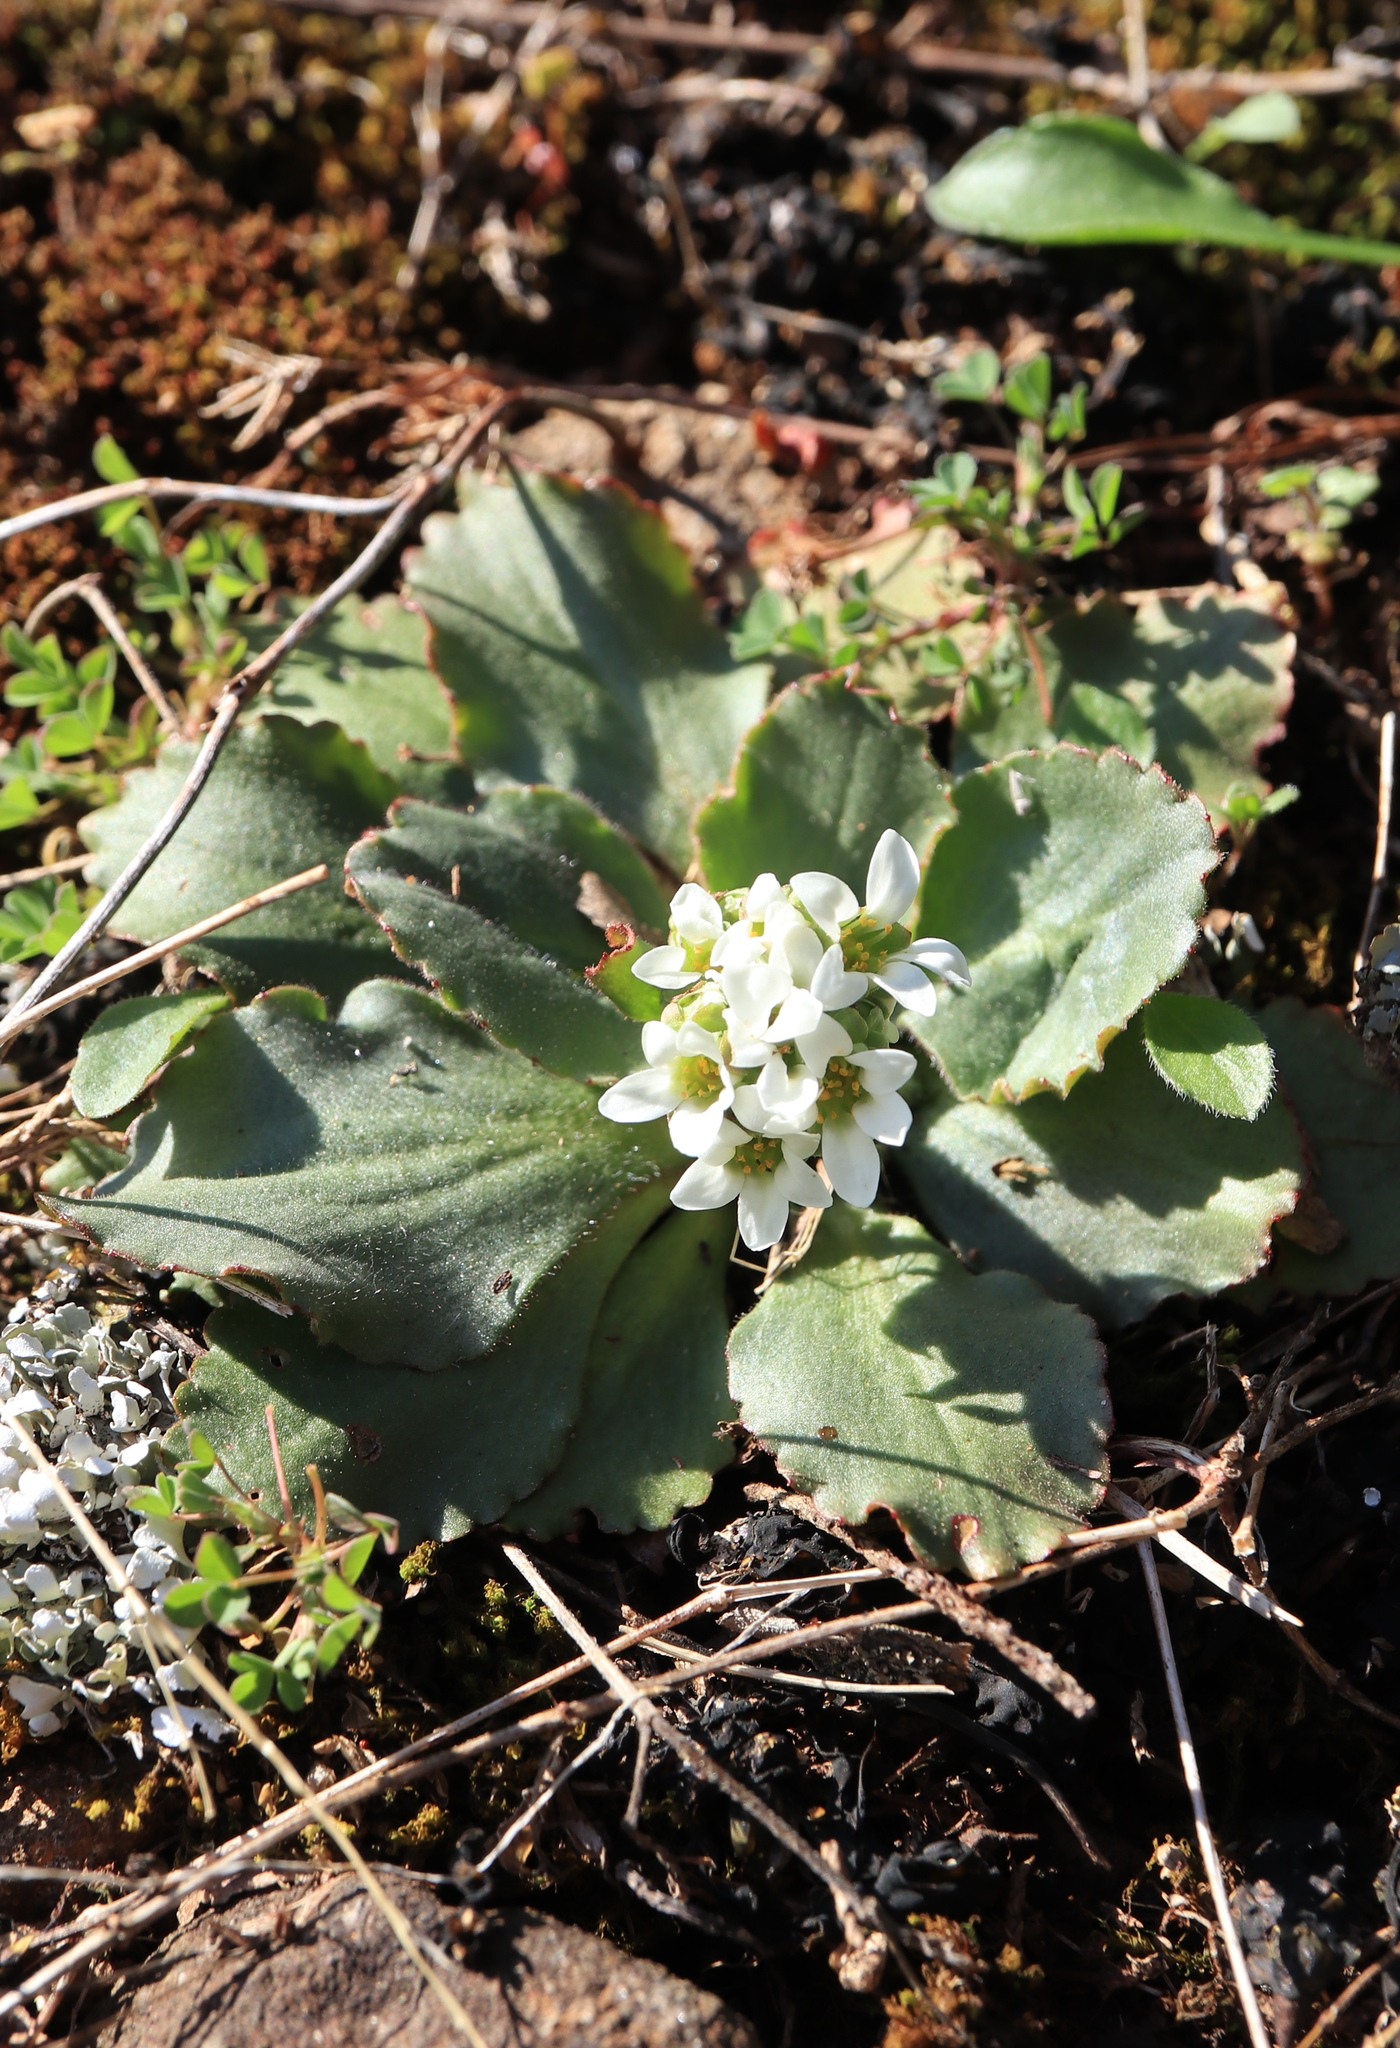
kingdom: Plantae
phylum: Tracheophyta
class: Magnoliopsida
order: Saxifragales
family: Saxifragaceae
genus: Micranthes
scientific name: Micranthes virginiensis
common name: Early saxifrage
